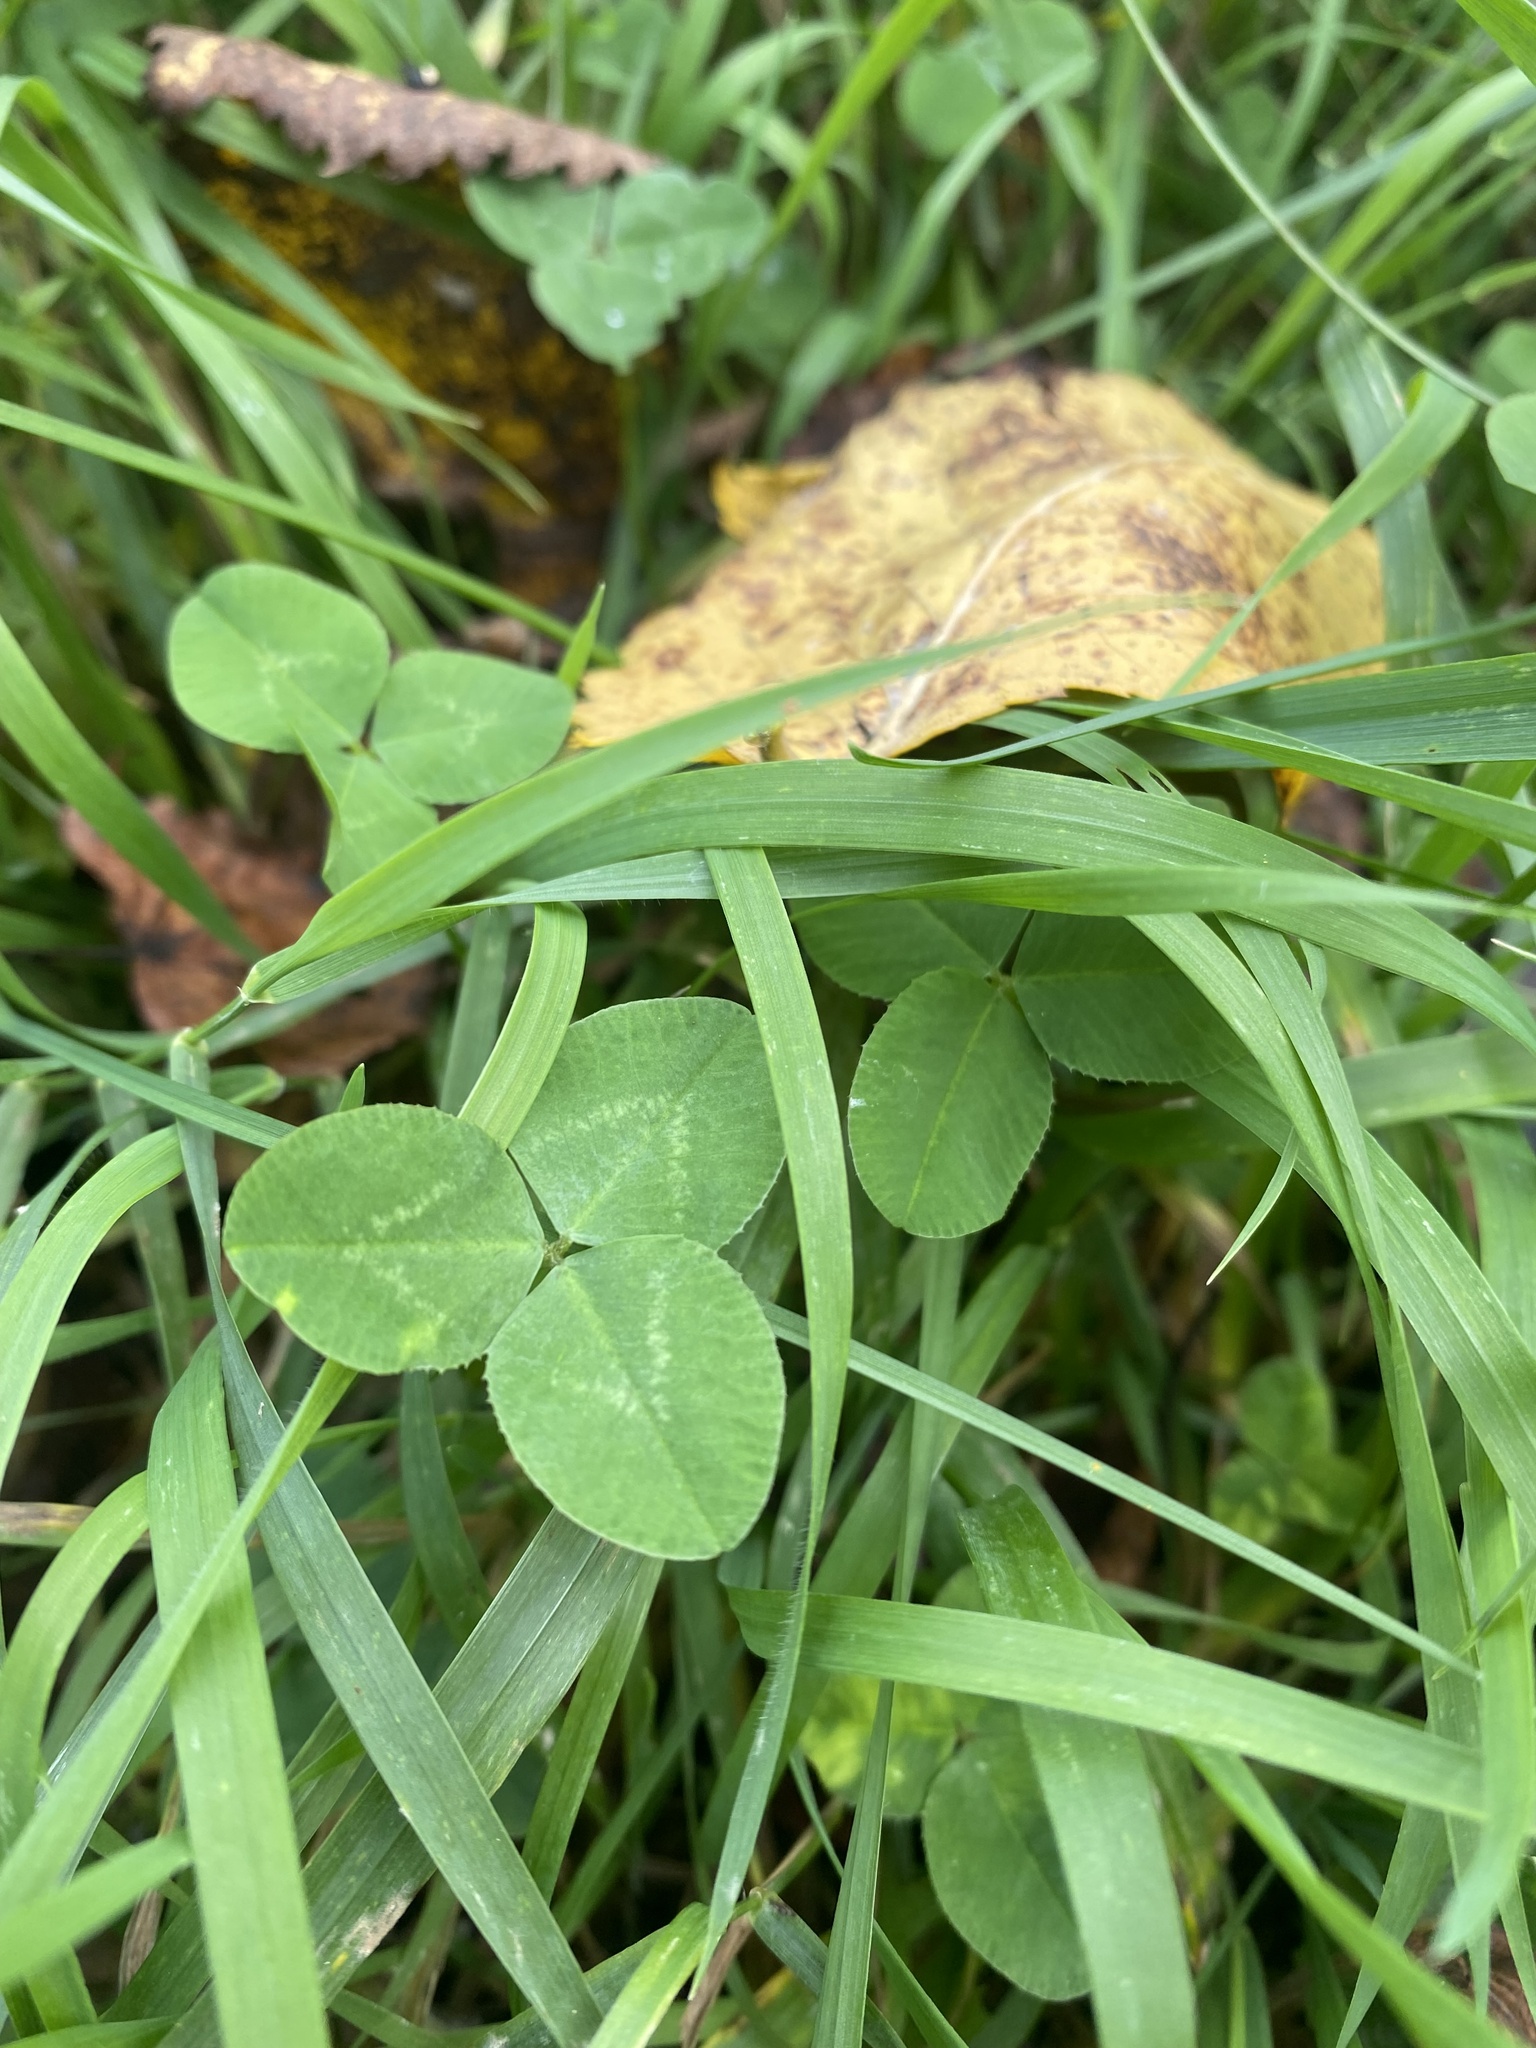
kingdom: Plantae
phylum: Tracheophyta
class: Magnoliopsida
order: Fabales
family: Fabaceae
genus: Trifolium
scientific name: Trifolium repens
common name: White clover
